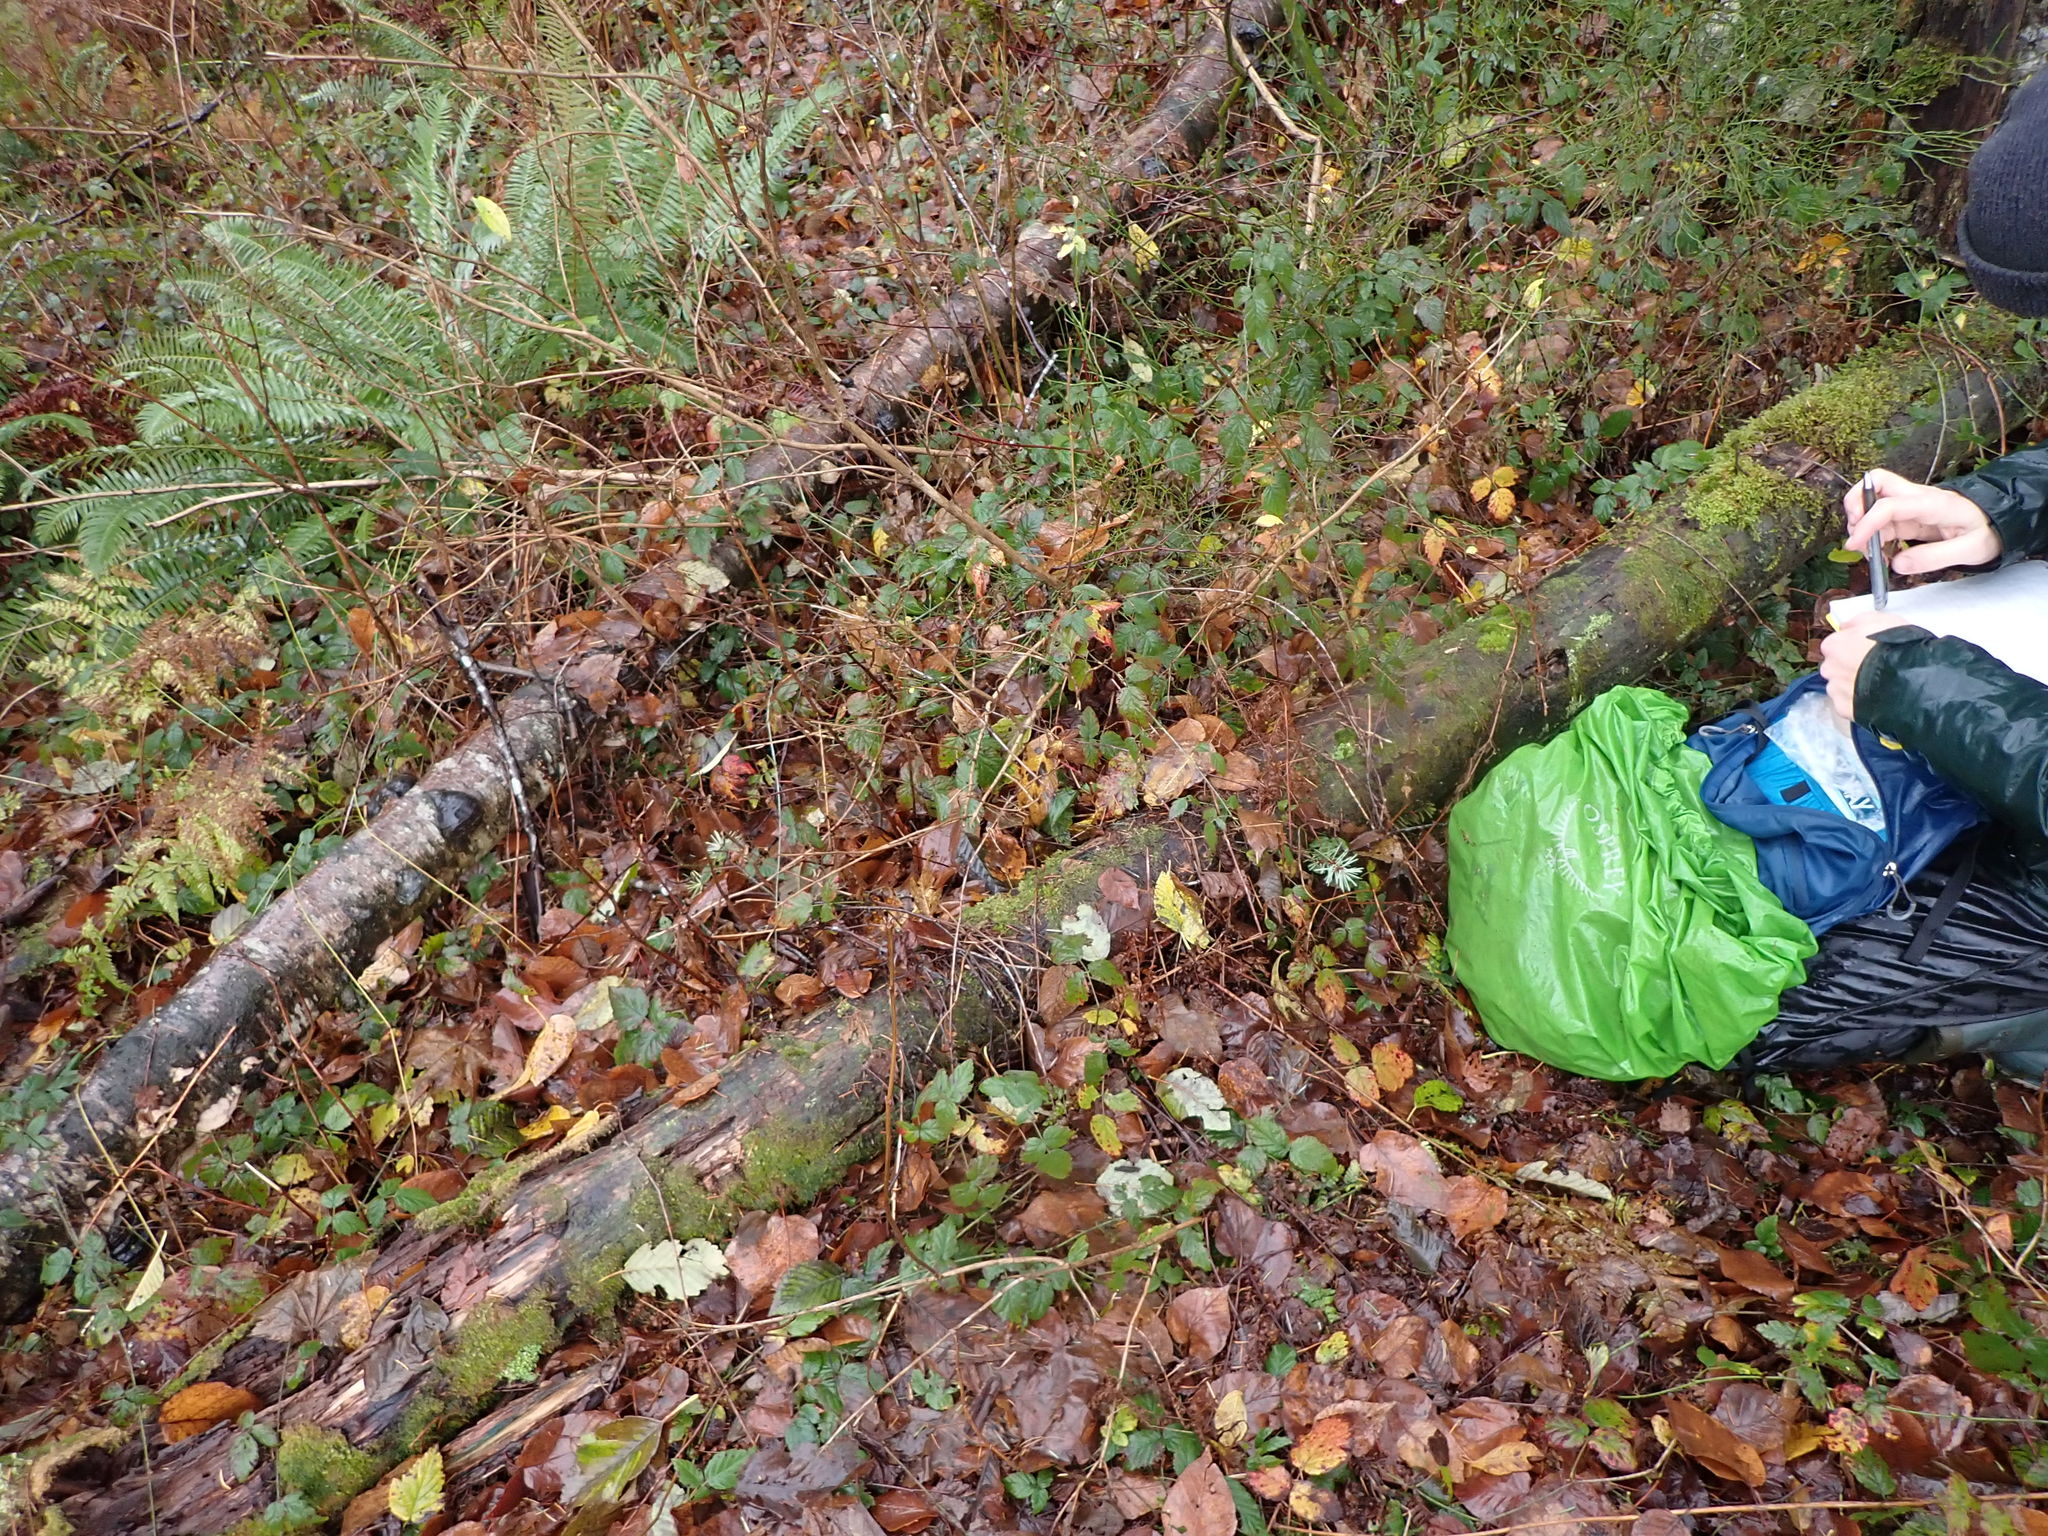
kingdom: Plantae
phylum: Bryophyta
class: Bryopsida
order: Hypnales
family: Pylaisiadelphaceae
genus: Brotherella
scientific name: Brotherella fauriei
